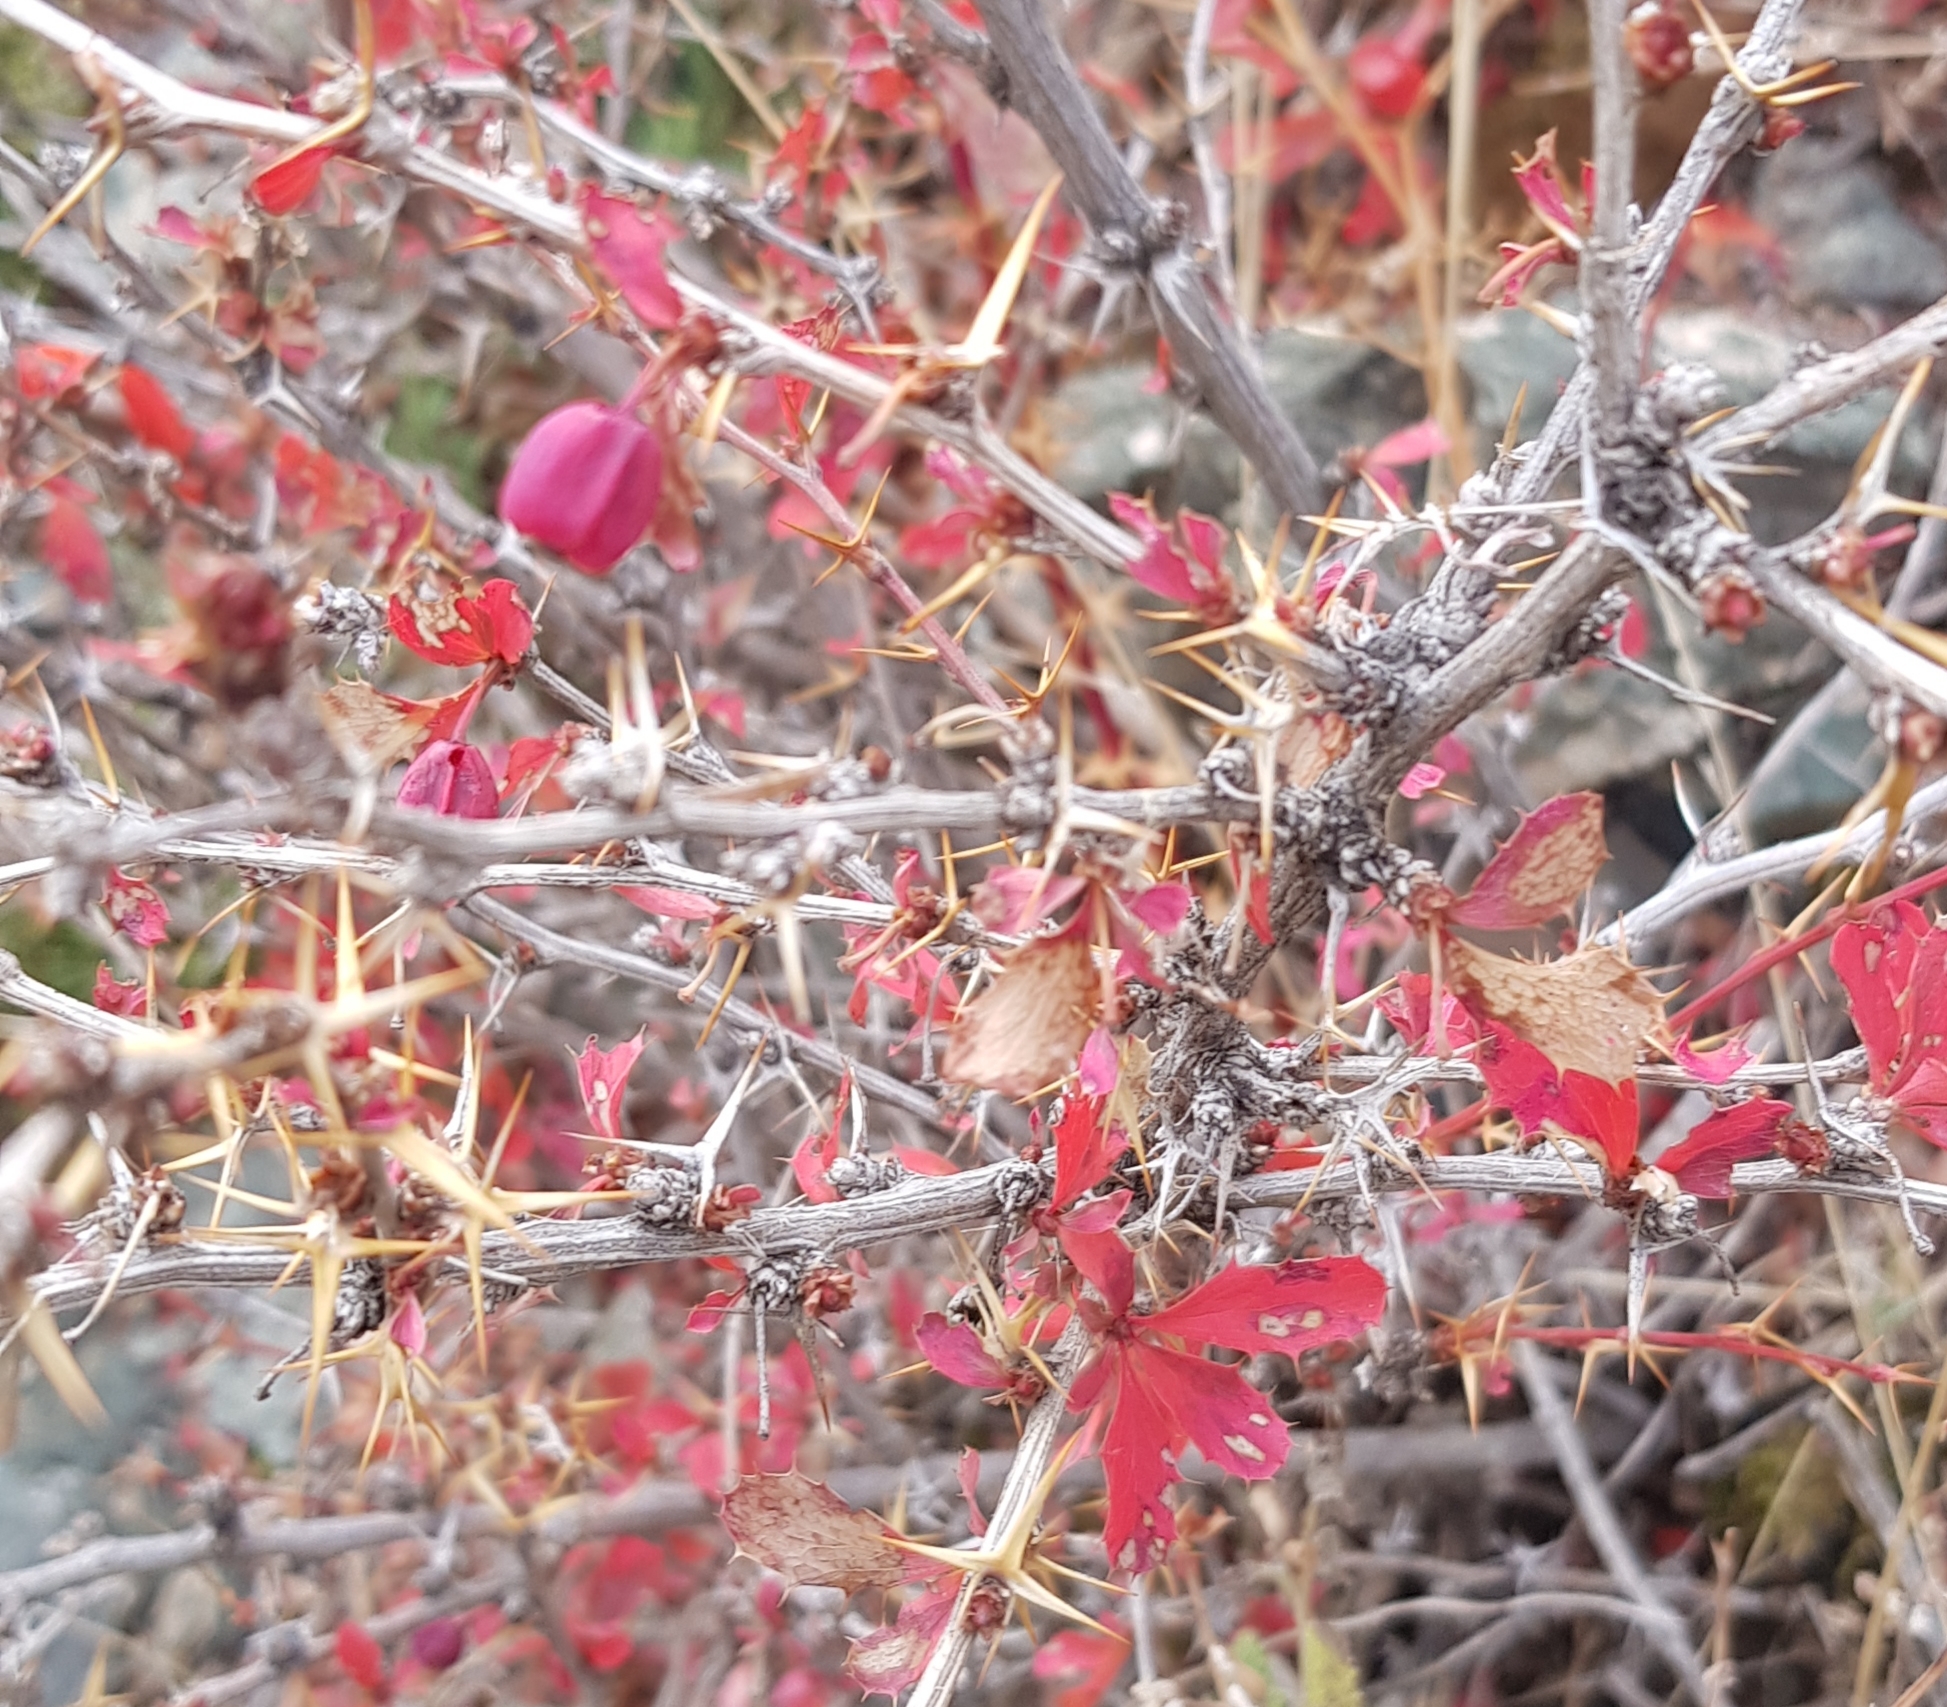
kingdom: Plantae
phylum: Tracheophyta
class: Magnoliopsida
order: Ranunculales
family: Berberidaceae
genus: Berberis
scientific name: Berberis sibirica
